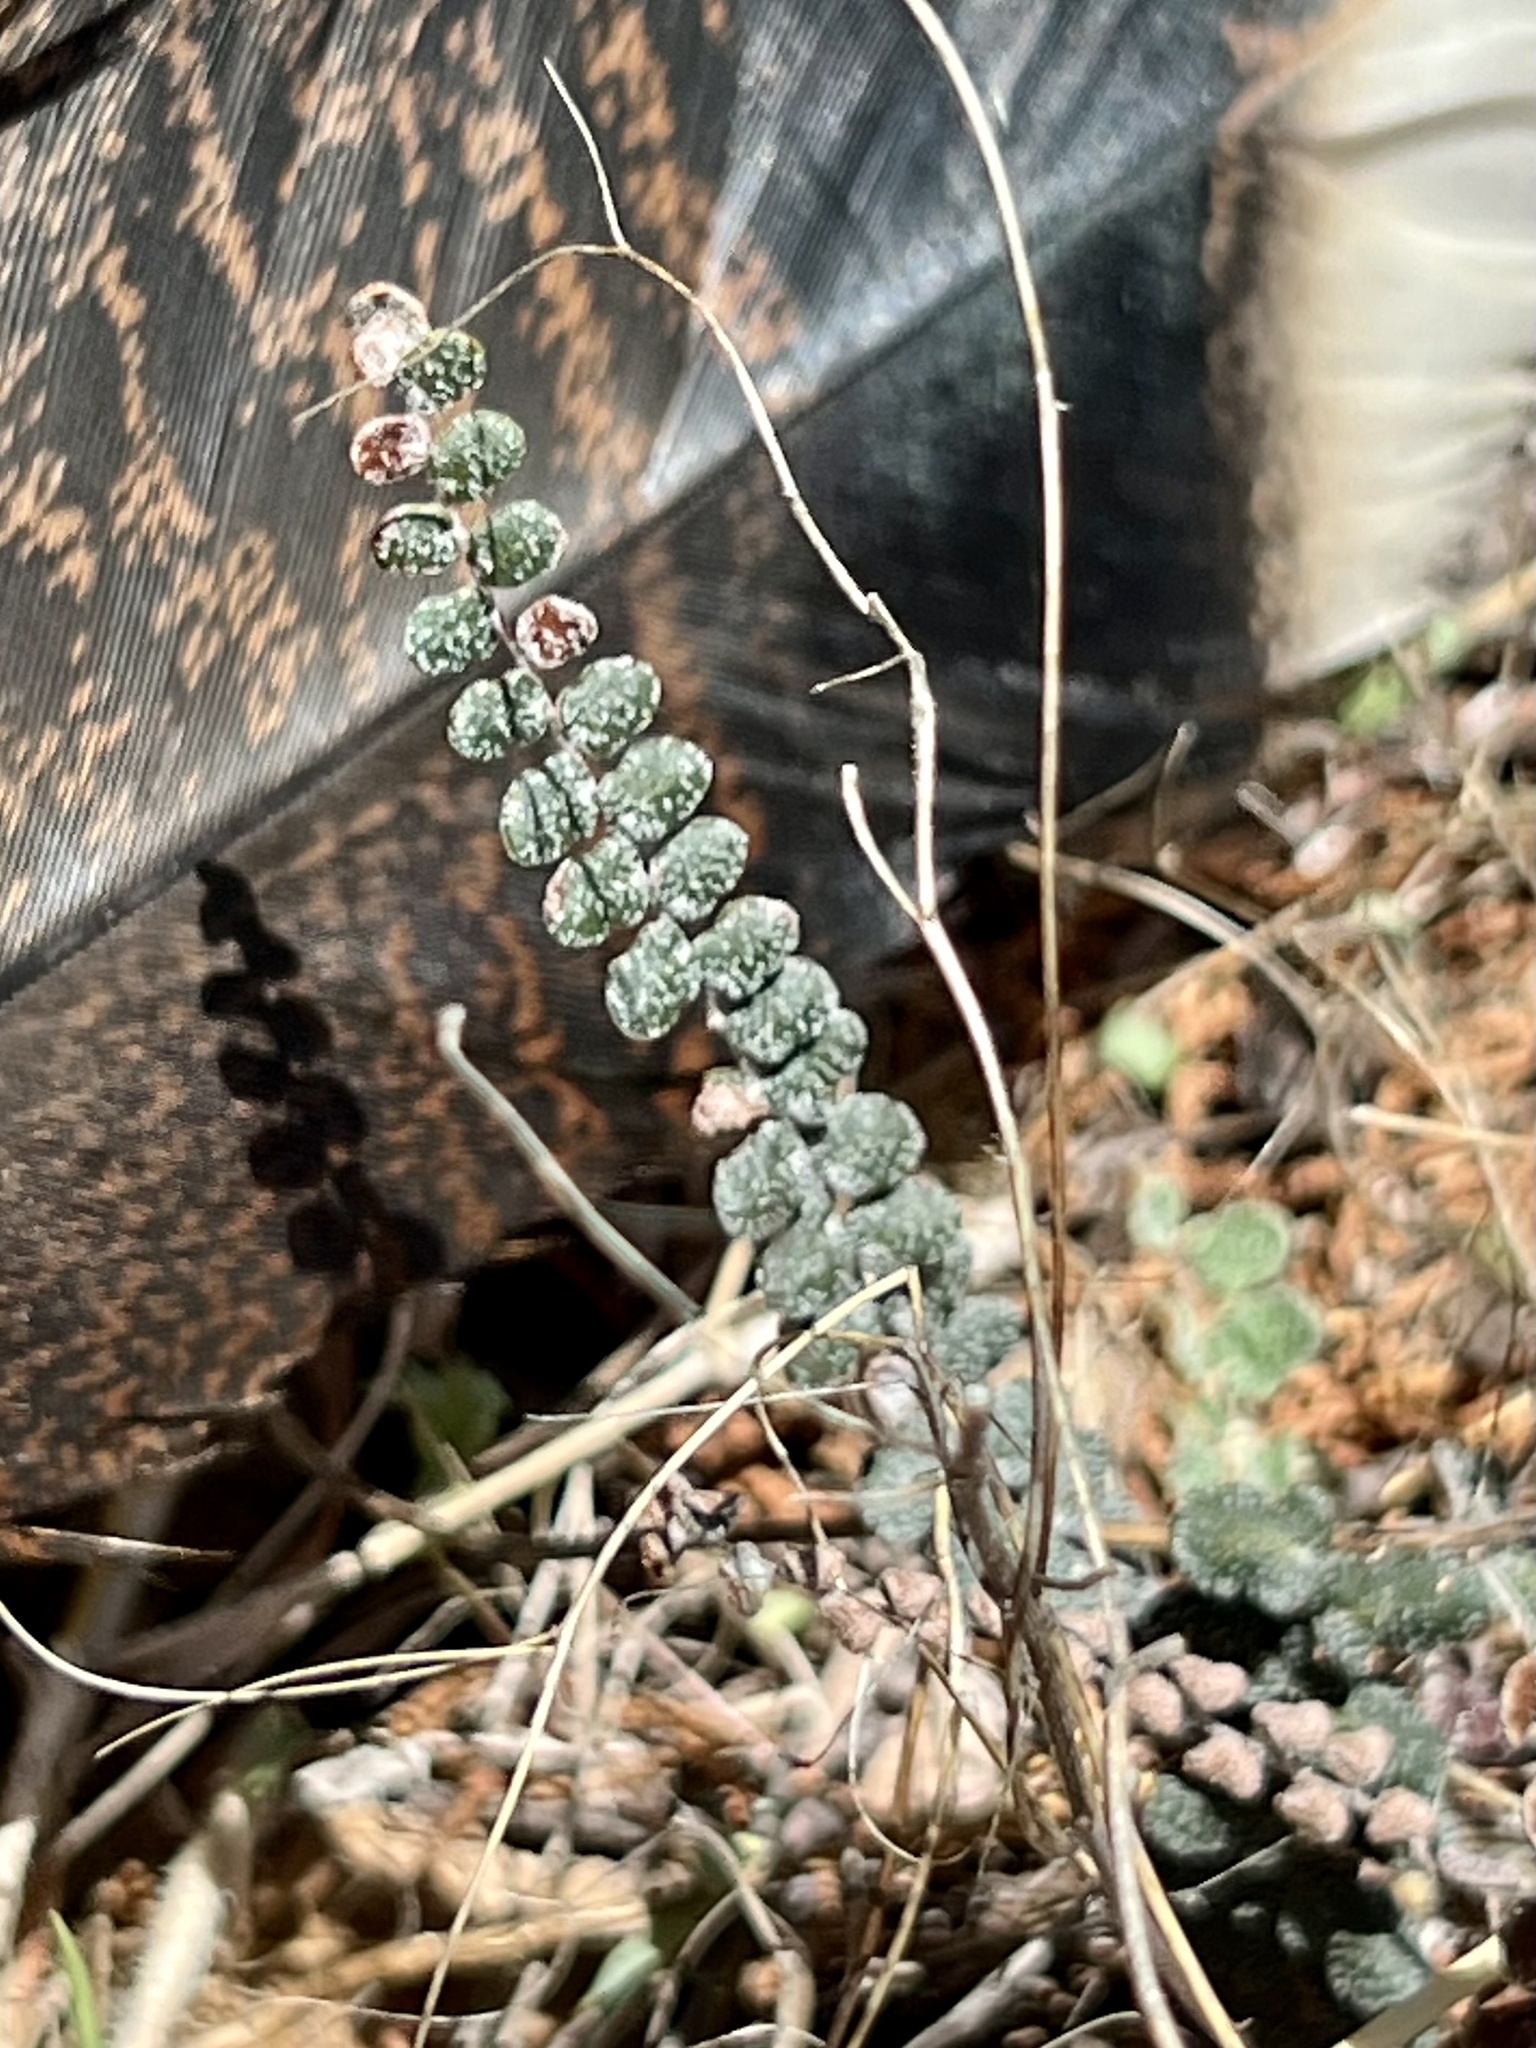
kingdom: Plantae
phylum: Tracheophyta
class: Polypodiopsida
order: Polypodiales
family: Pteridaceae
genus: Astrolepis
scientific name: Astrolepis cochisensis
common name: Scaly cloak fern
